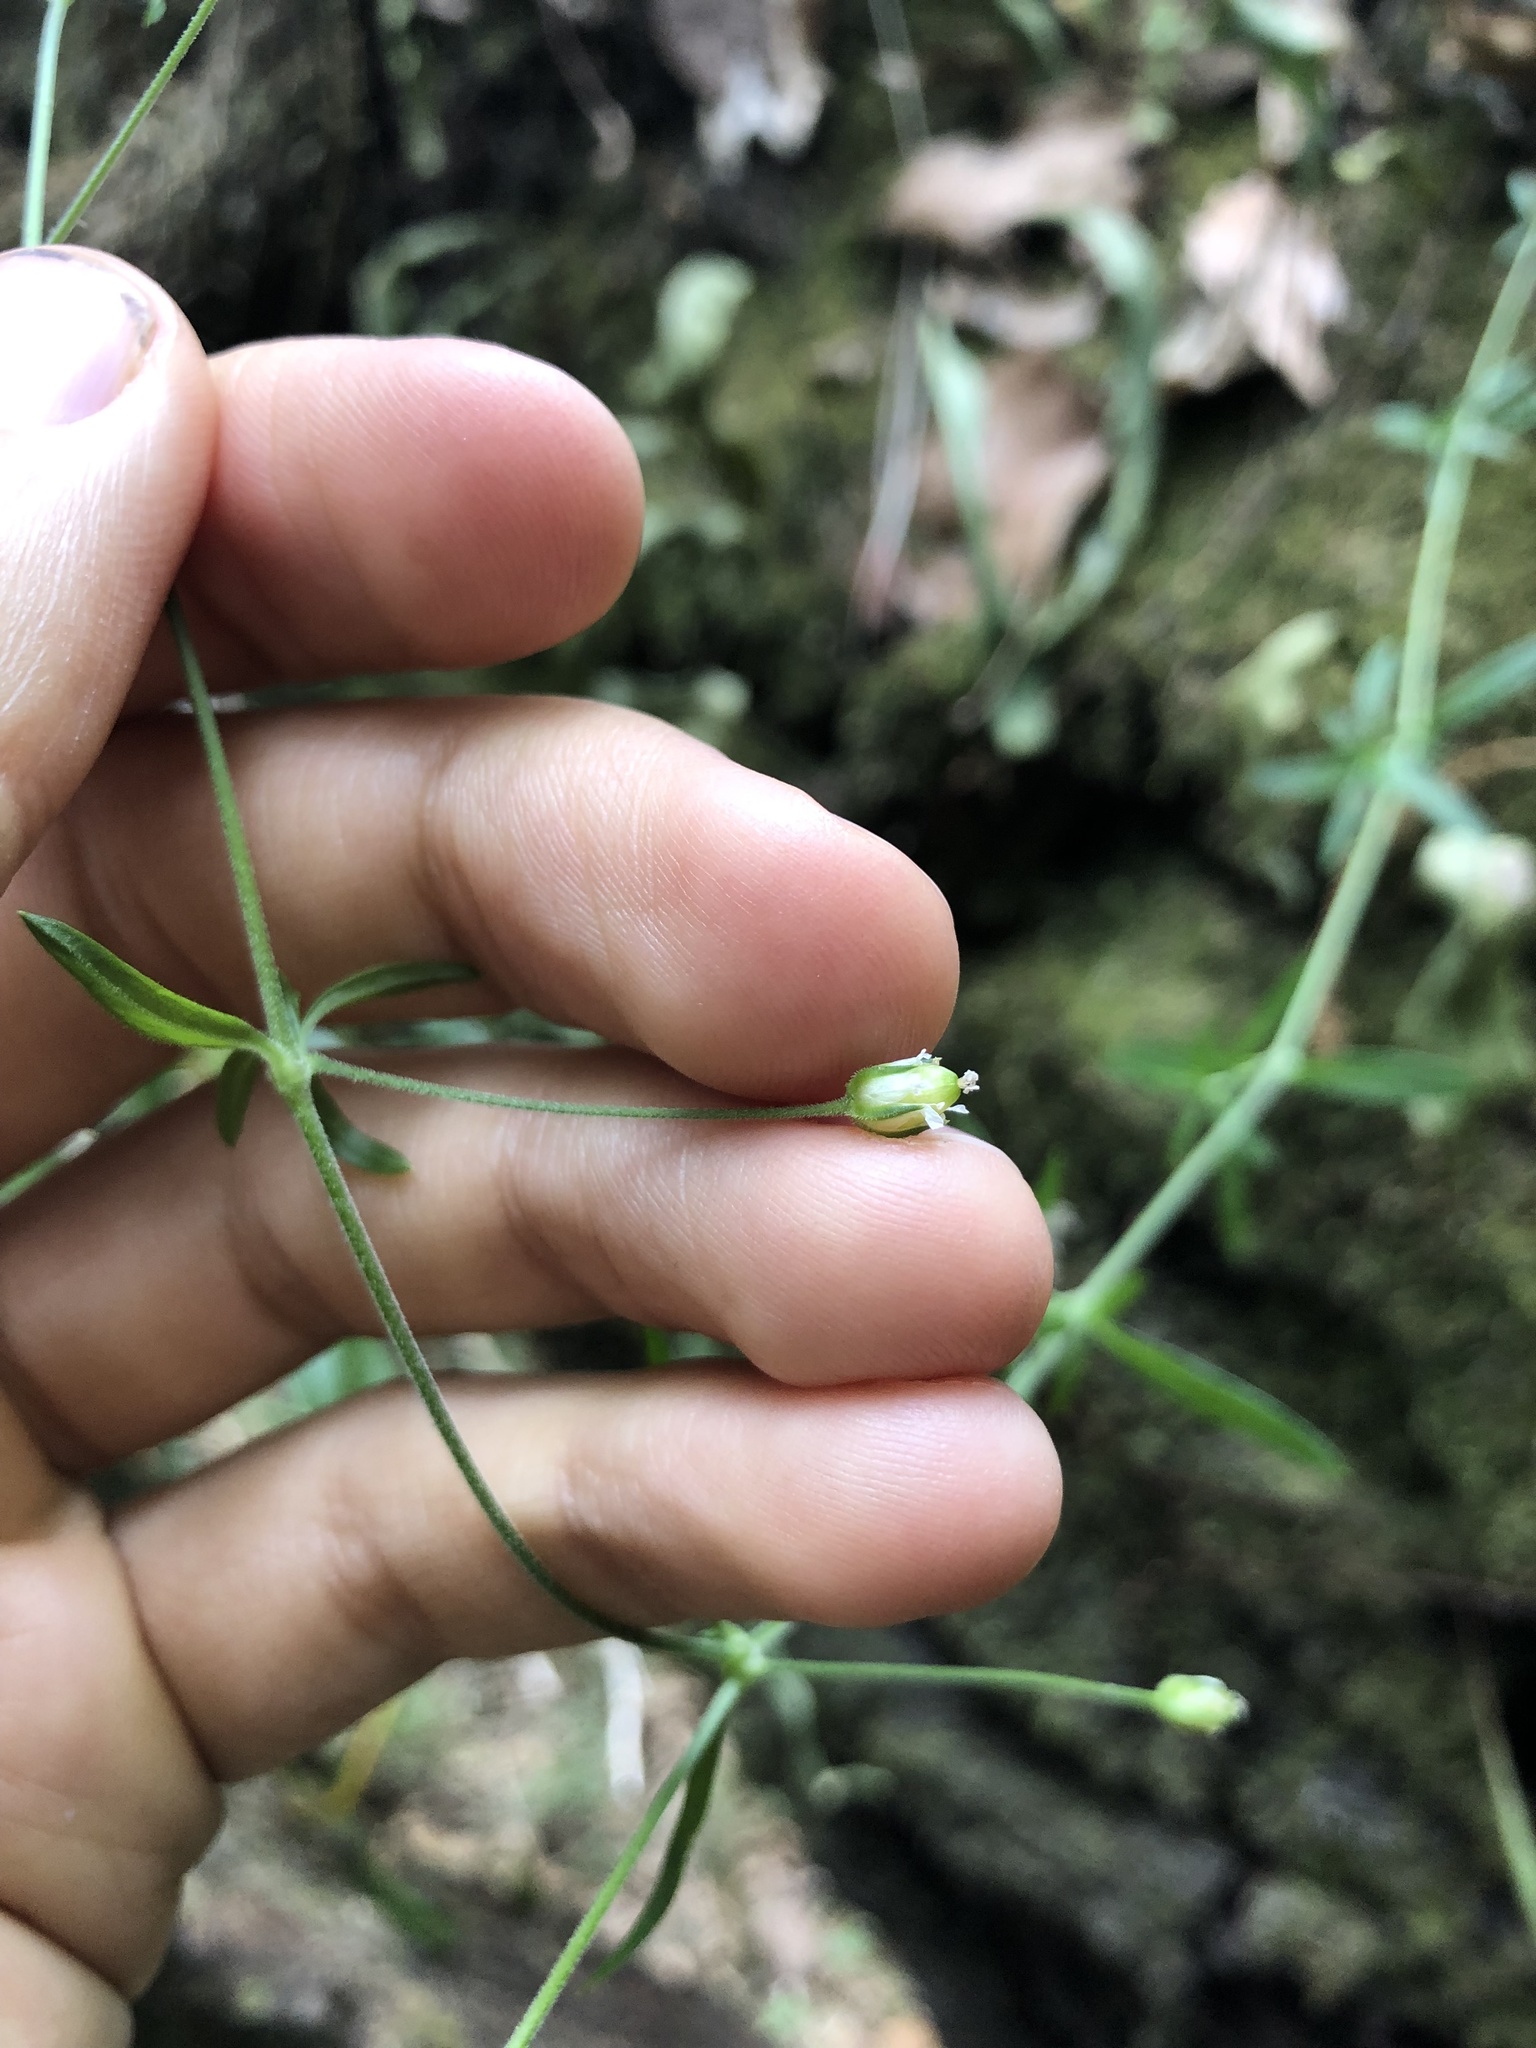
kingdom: Plantae
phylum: Tracheophyta
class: Magnoliopsida
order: Caryophyllales
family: Caryophyllaceae
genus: Arenaria
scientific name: Arenaria lanuginosa
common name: Spread sandwort
